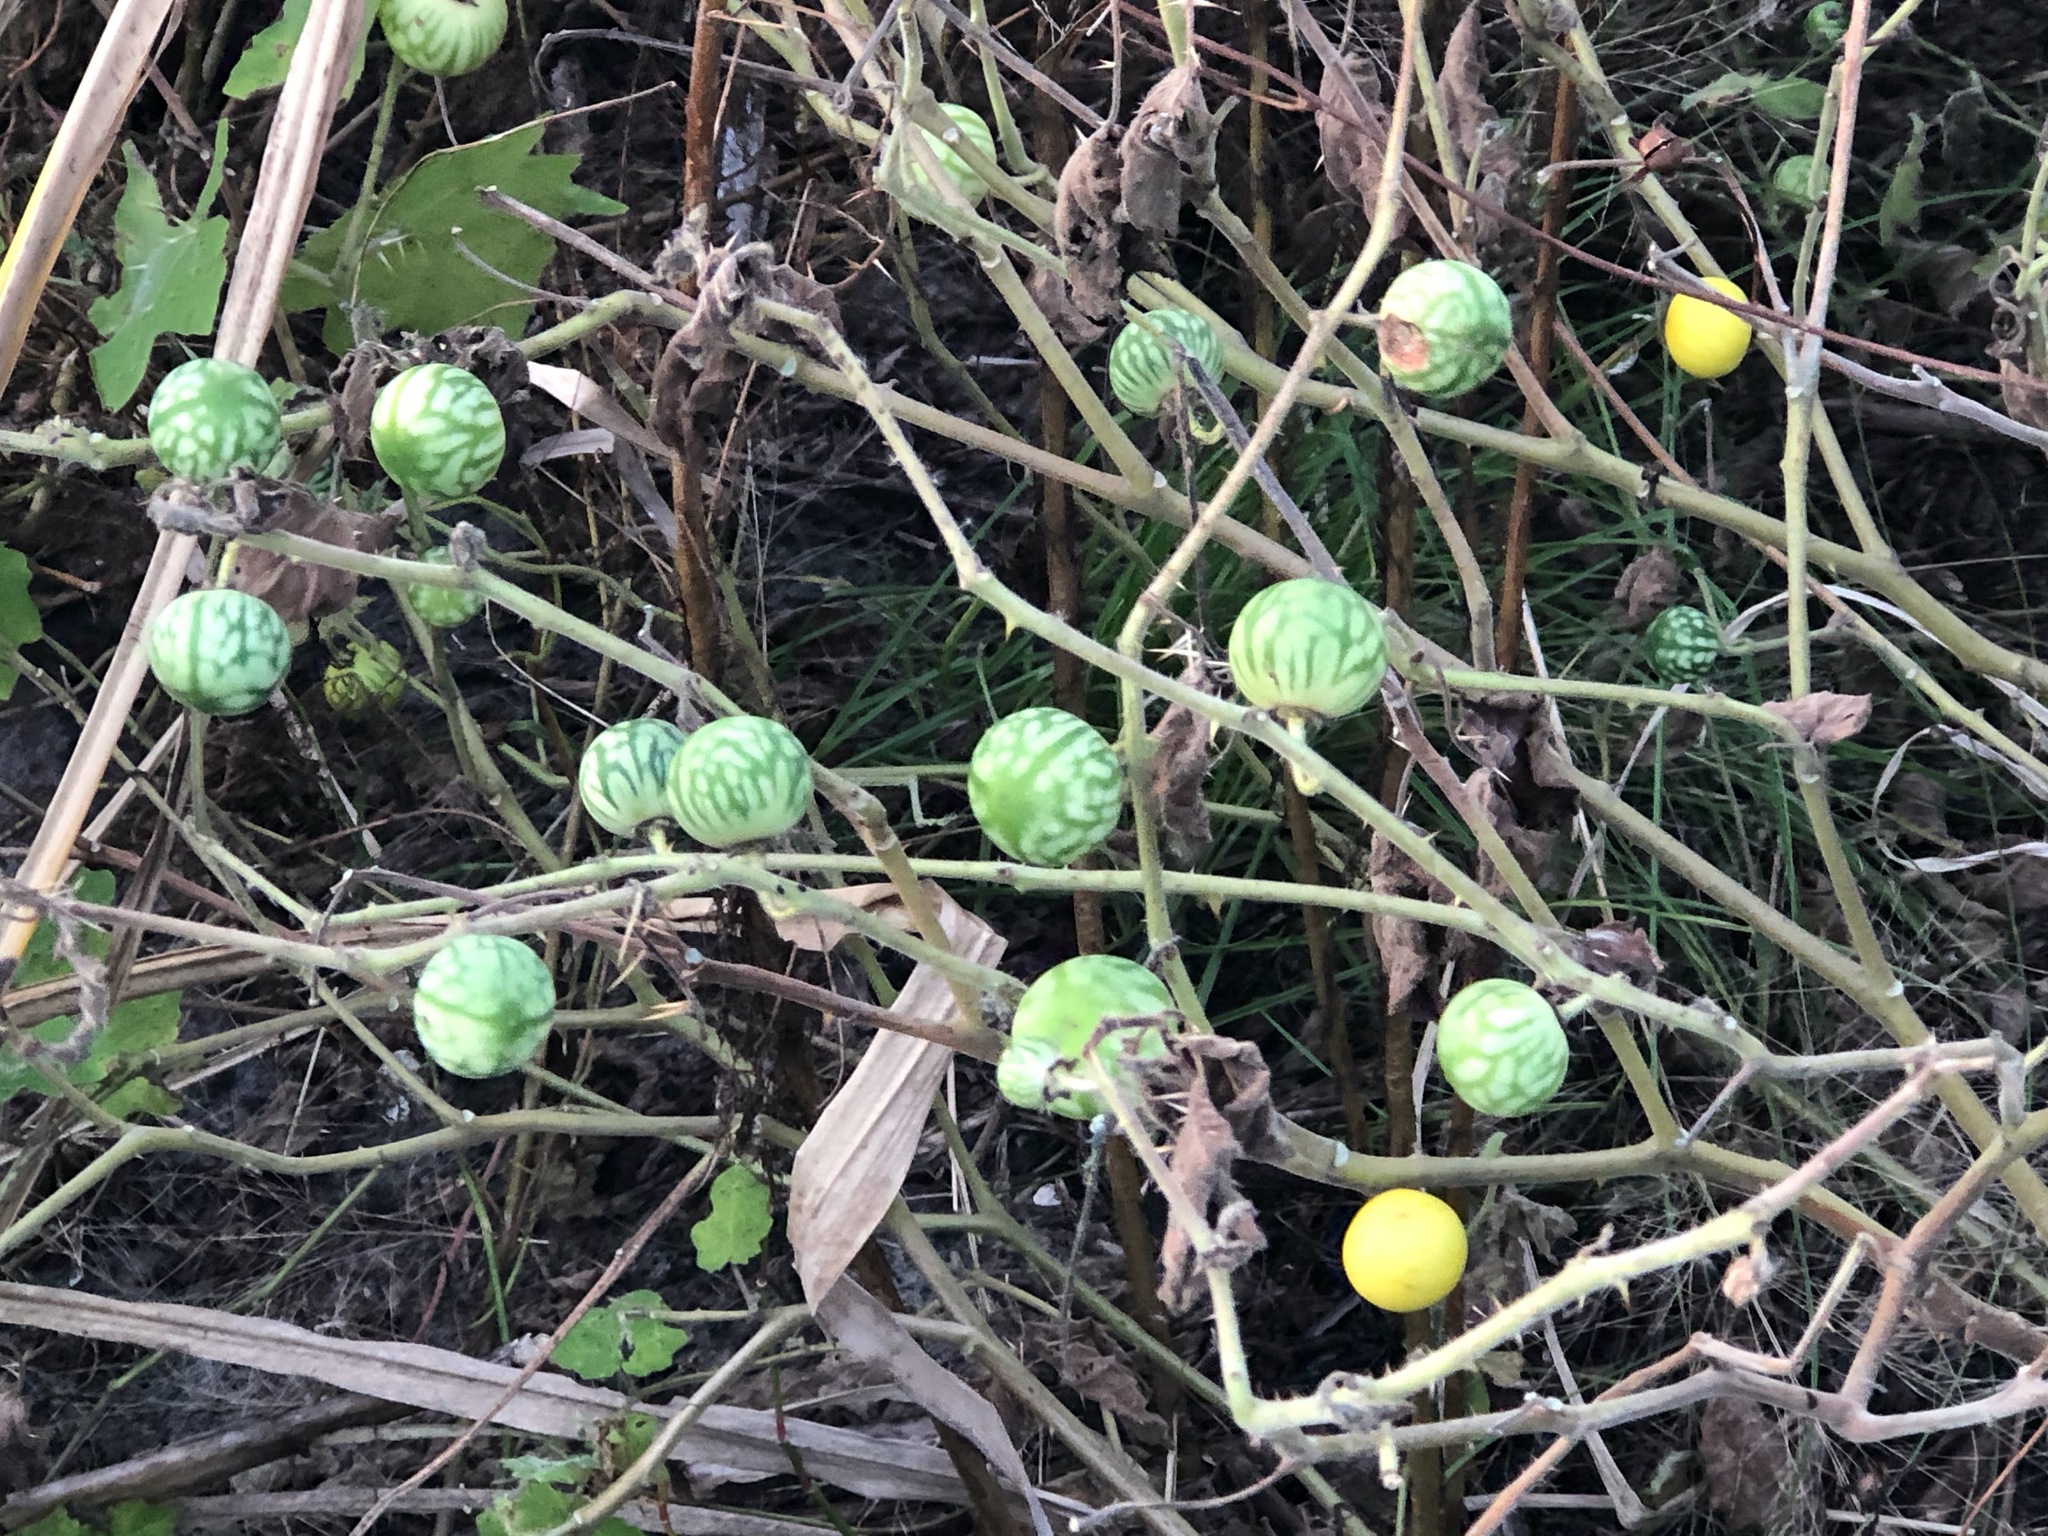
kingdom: Plantae
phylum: Tracheophyta
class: Magnoliopsida
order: Solanales
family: Solanaceae
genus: Solanum
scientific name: Solanum viarum
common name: Tropical soda apple
